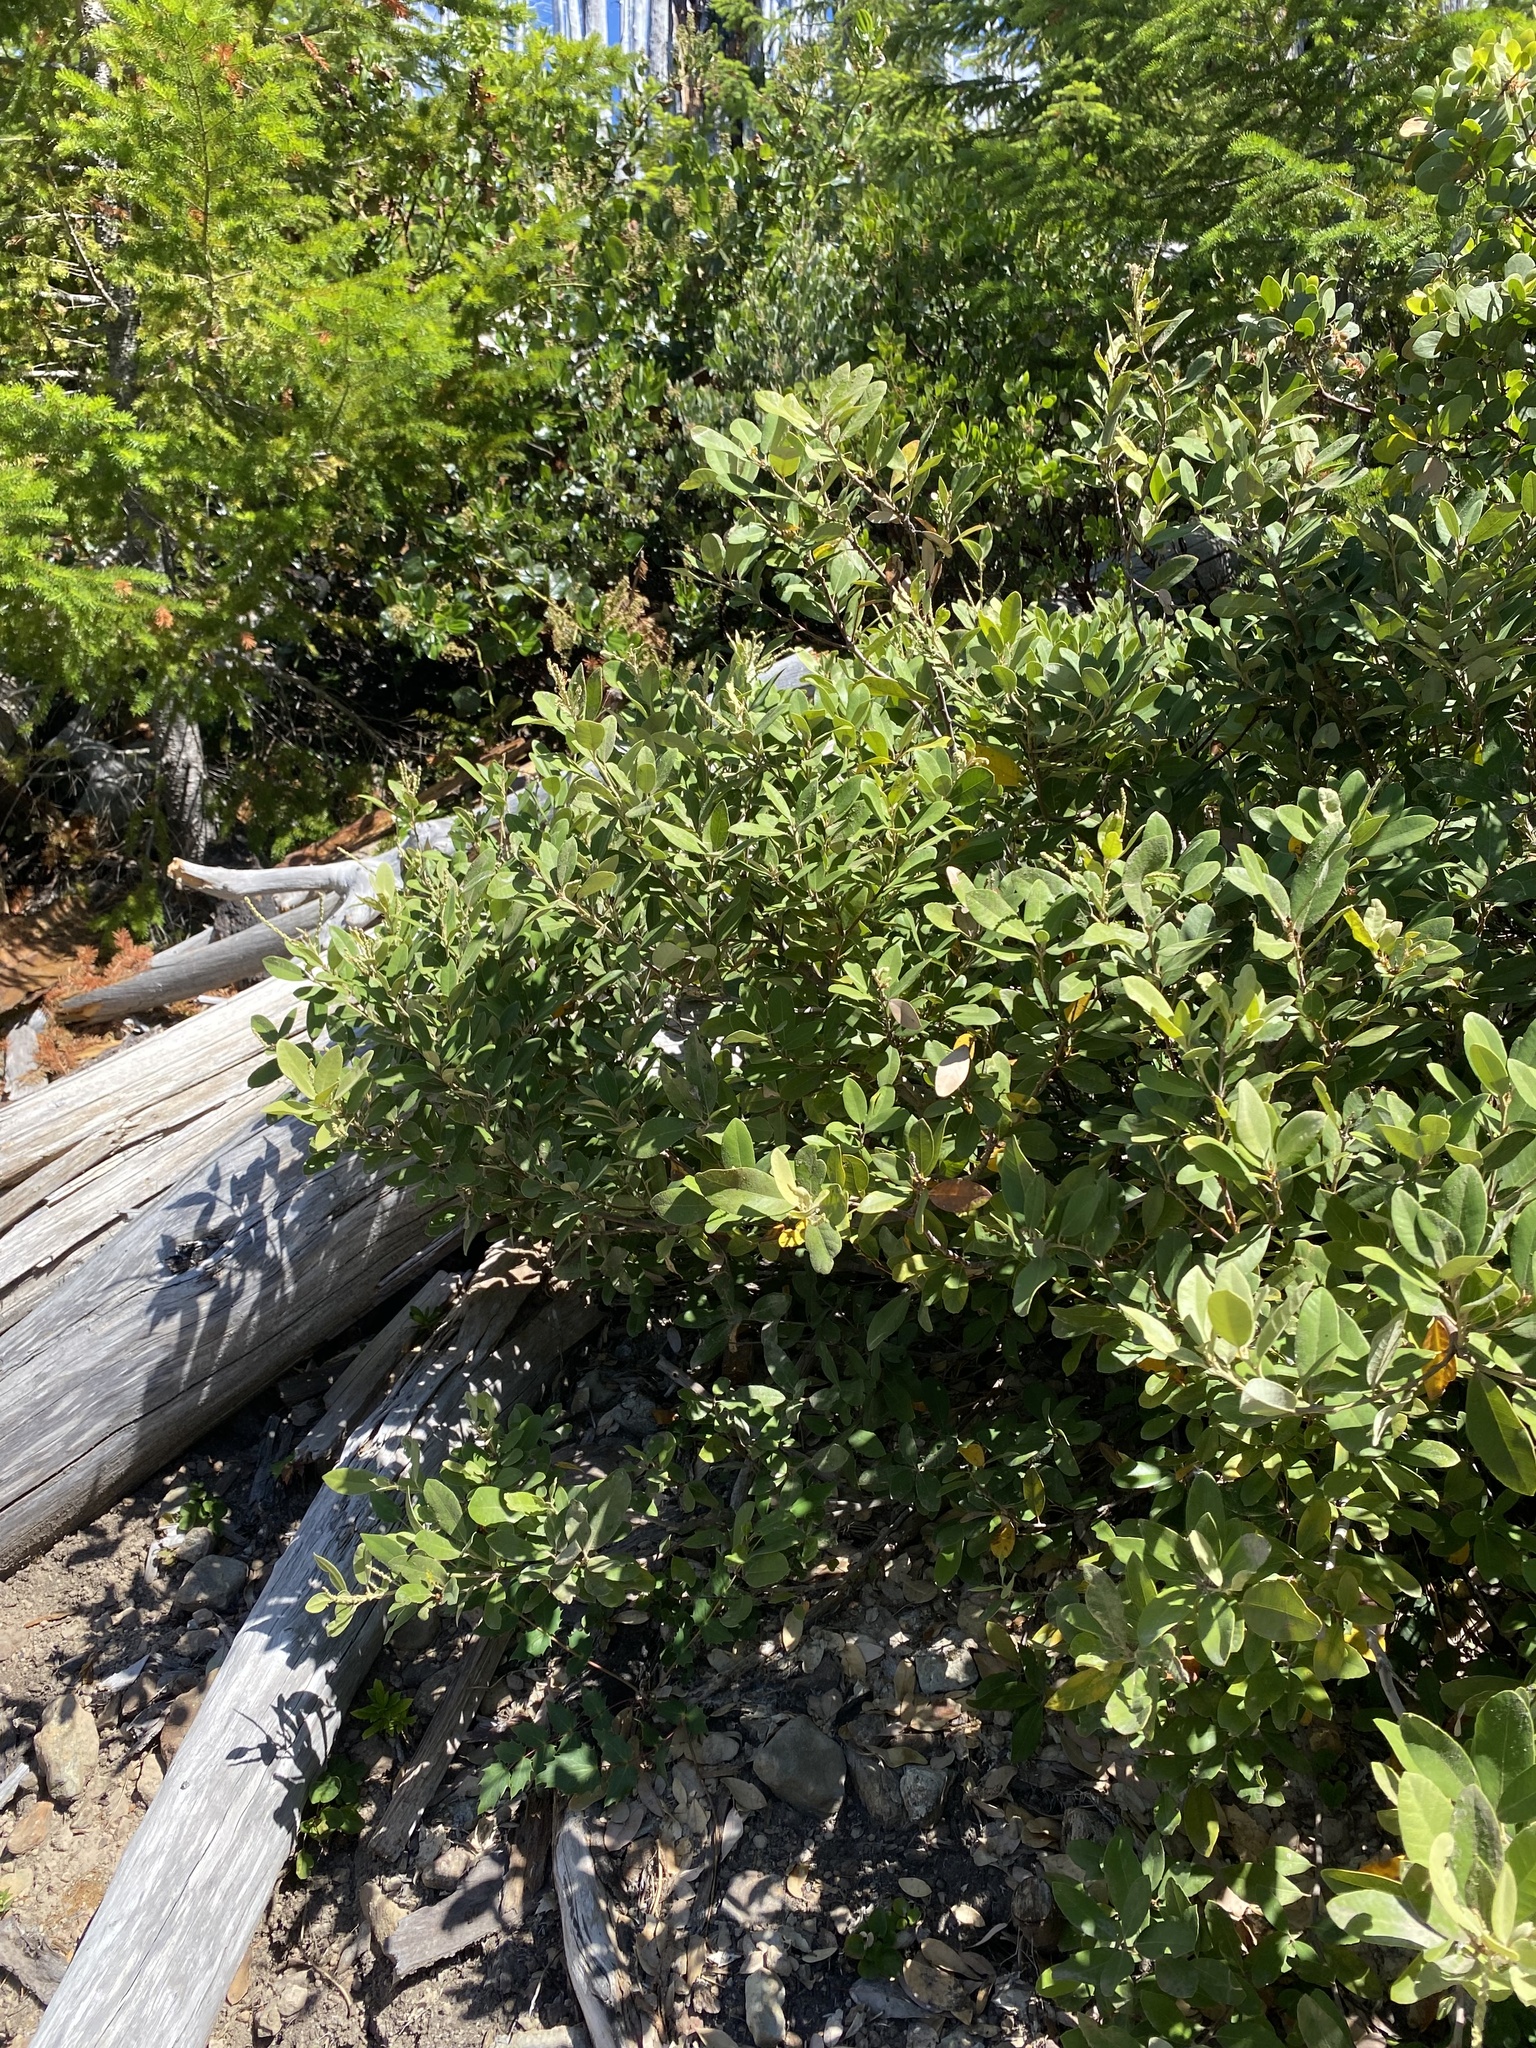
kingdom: Plantae
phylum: Tracheophyta
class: Magnoliopsida
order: Fagales
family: Fagaceae
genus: Notholithocarpus
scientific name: Notholithocarpus densiflorus
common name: Tan bark oak
